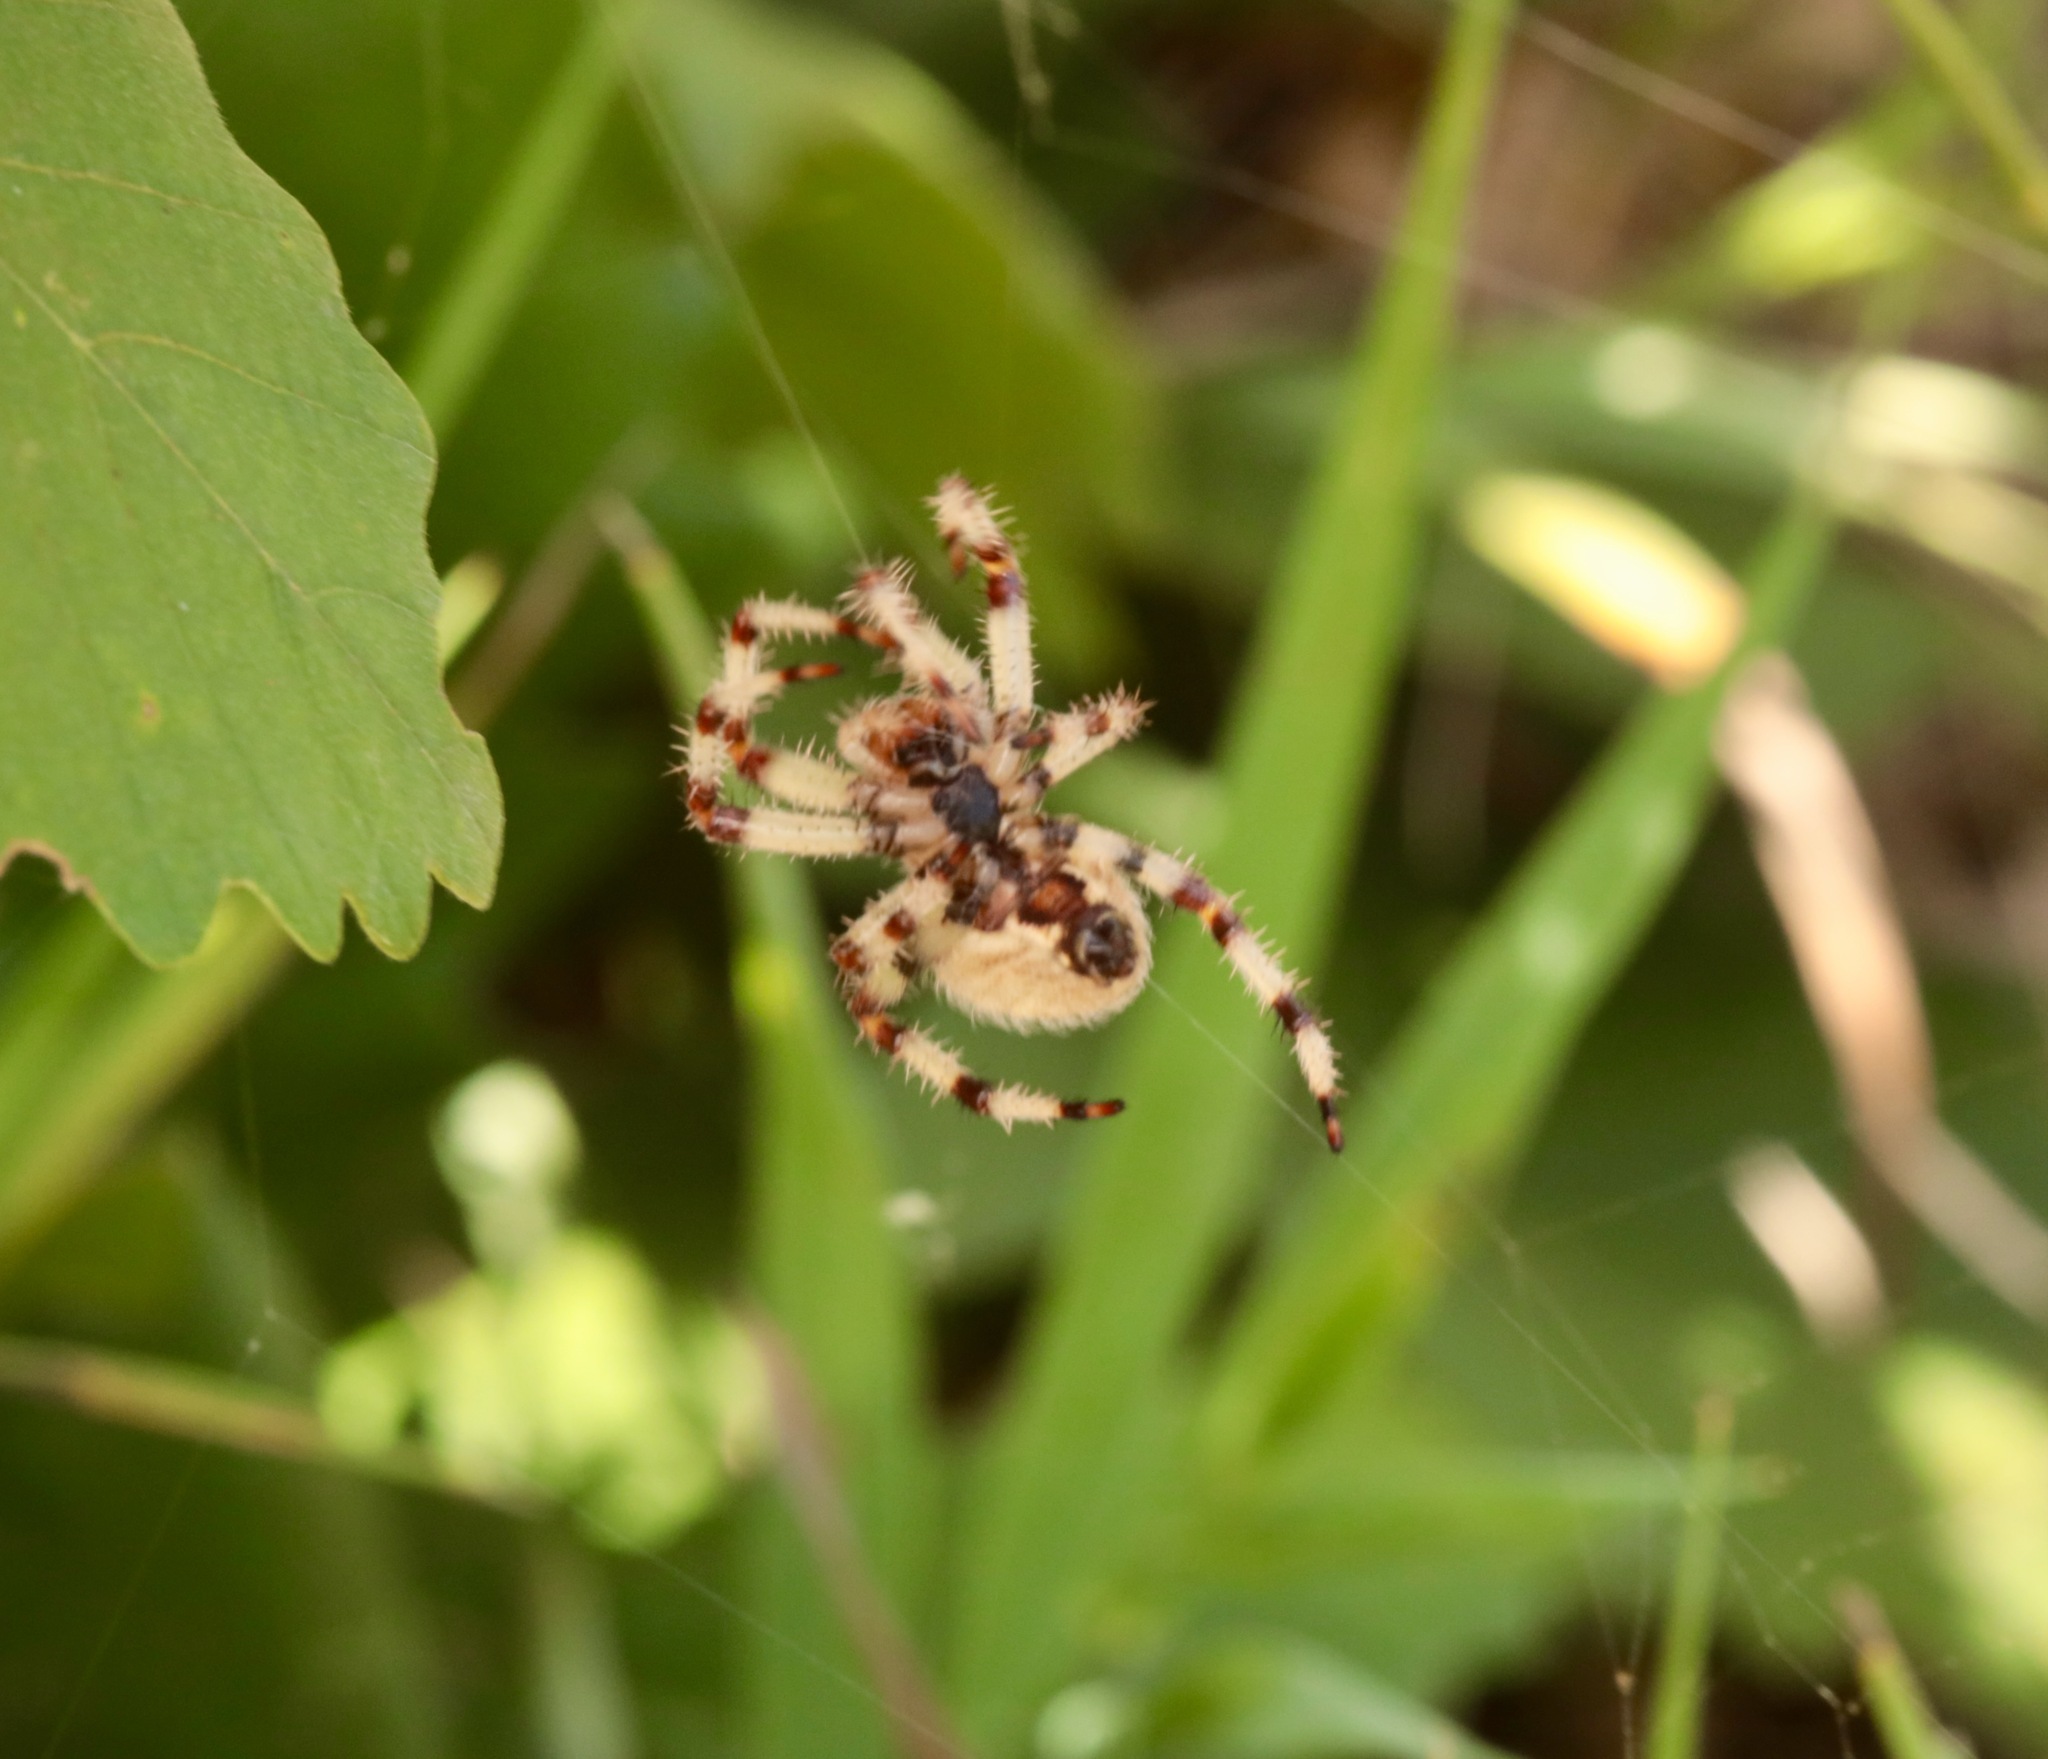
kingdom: Animalia
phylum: Arthropoda
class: Arachnida
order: Araneae
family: Araneidae
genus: Araneus
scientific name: Araneus trifolium
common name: Shamrock orbweaver
